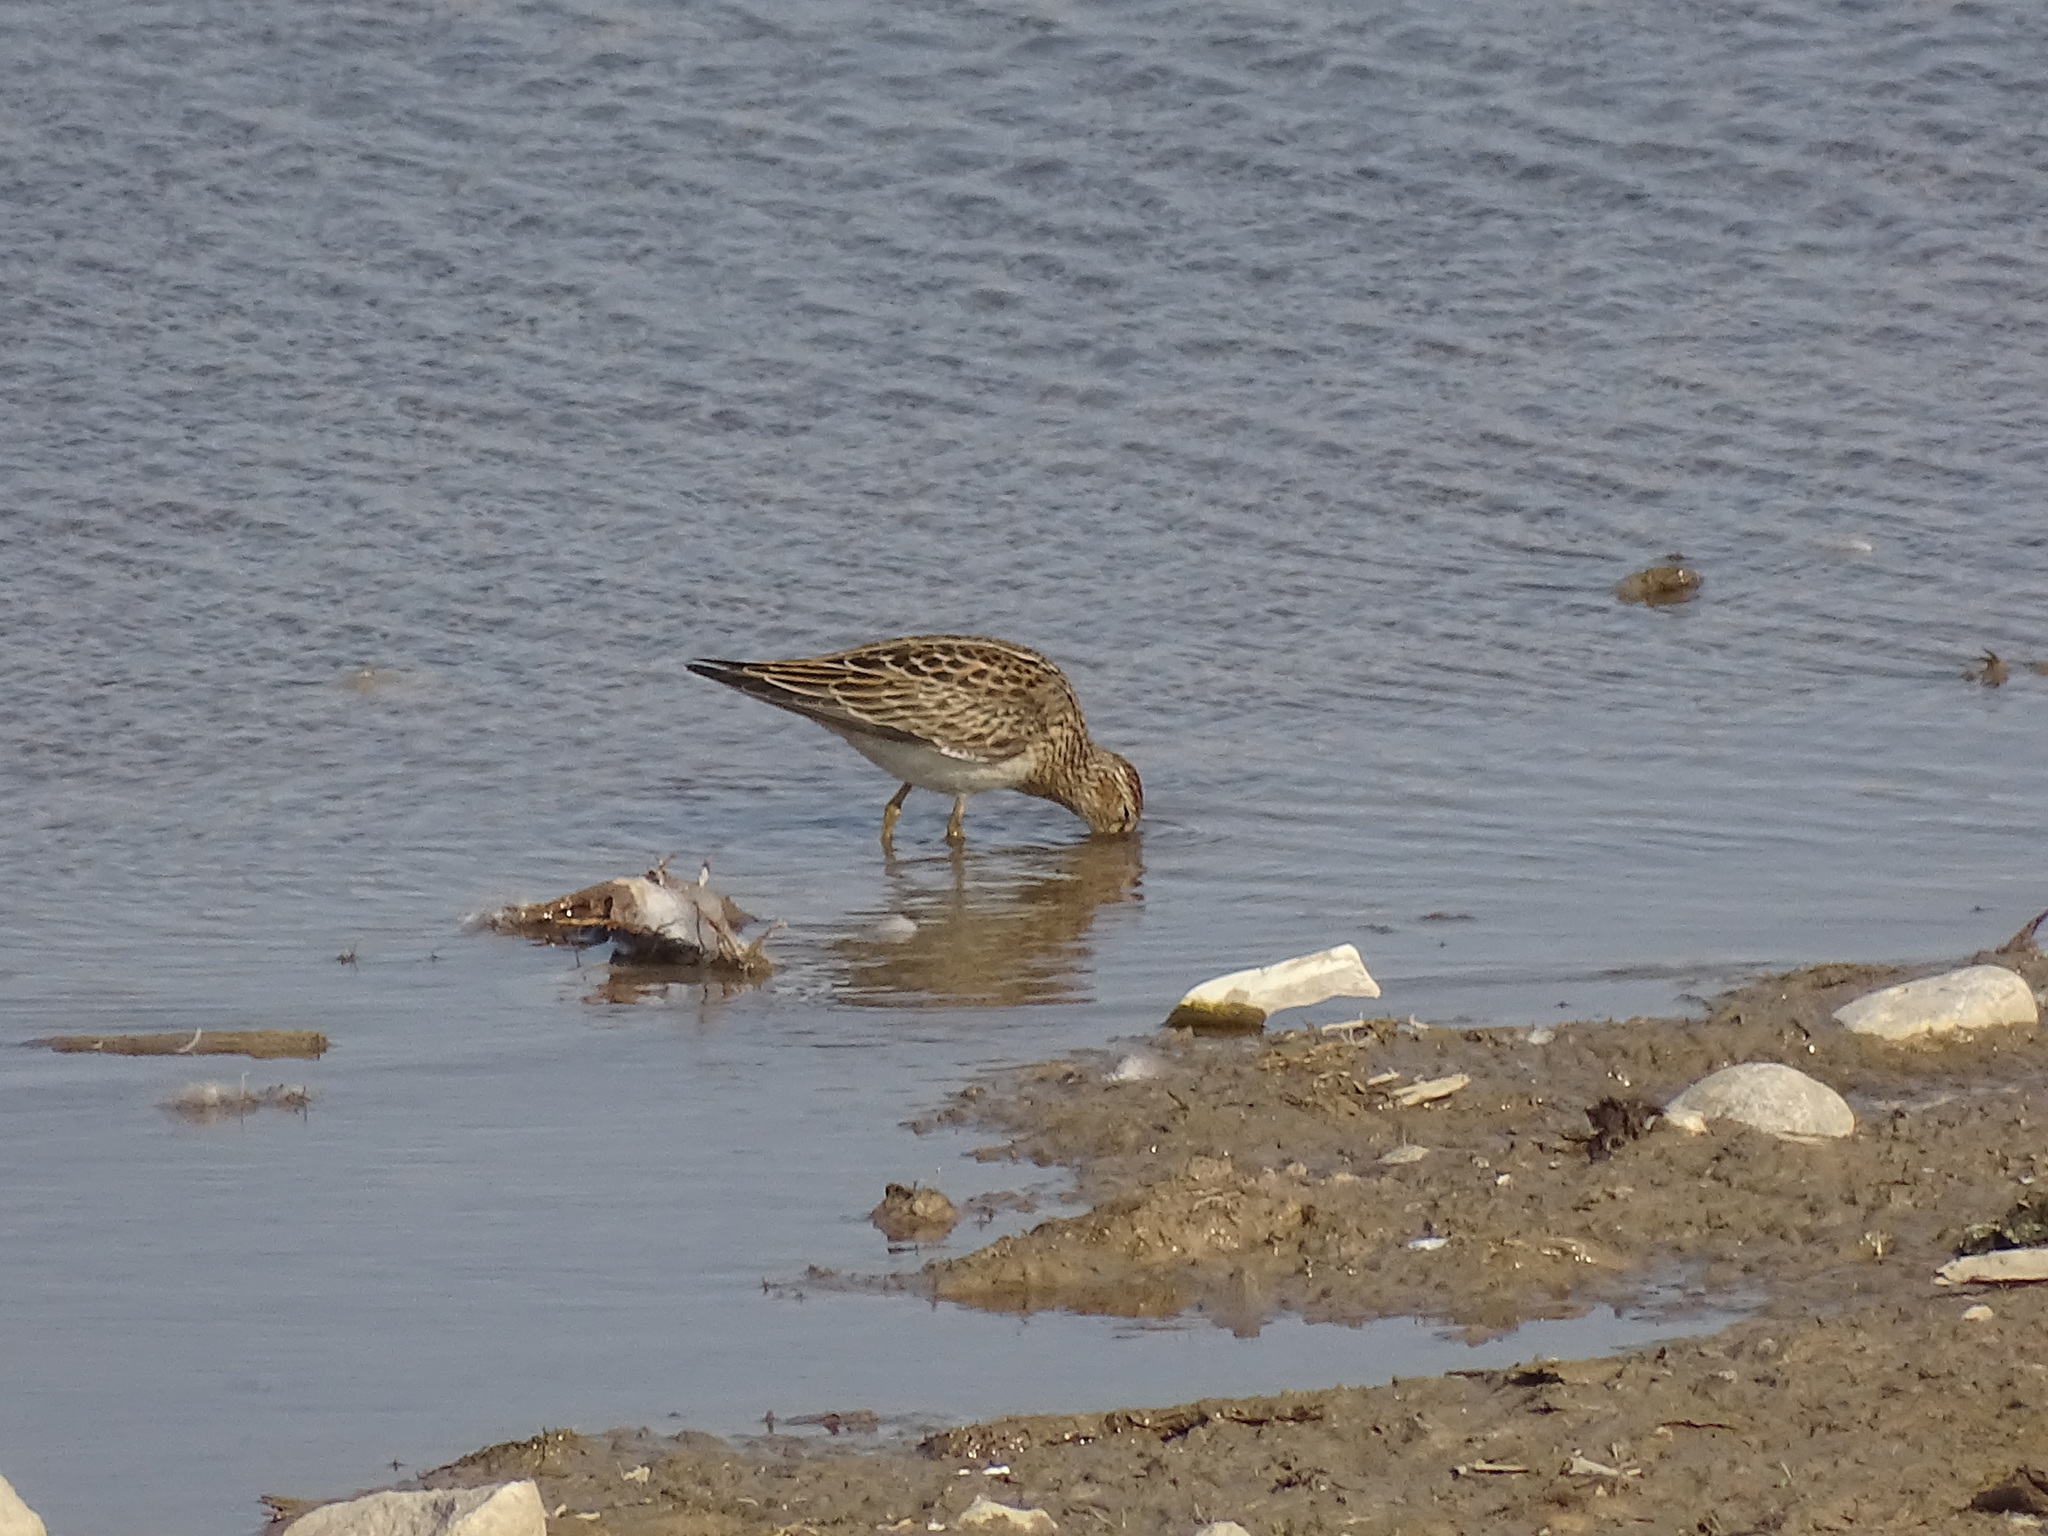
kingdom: Animalia
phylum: Chordata
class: Aves
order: Charadriiformes
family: Scolopacidae
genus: Calidris
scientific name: Calidris melanotos
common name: Pectoral sandpiper
